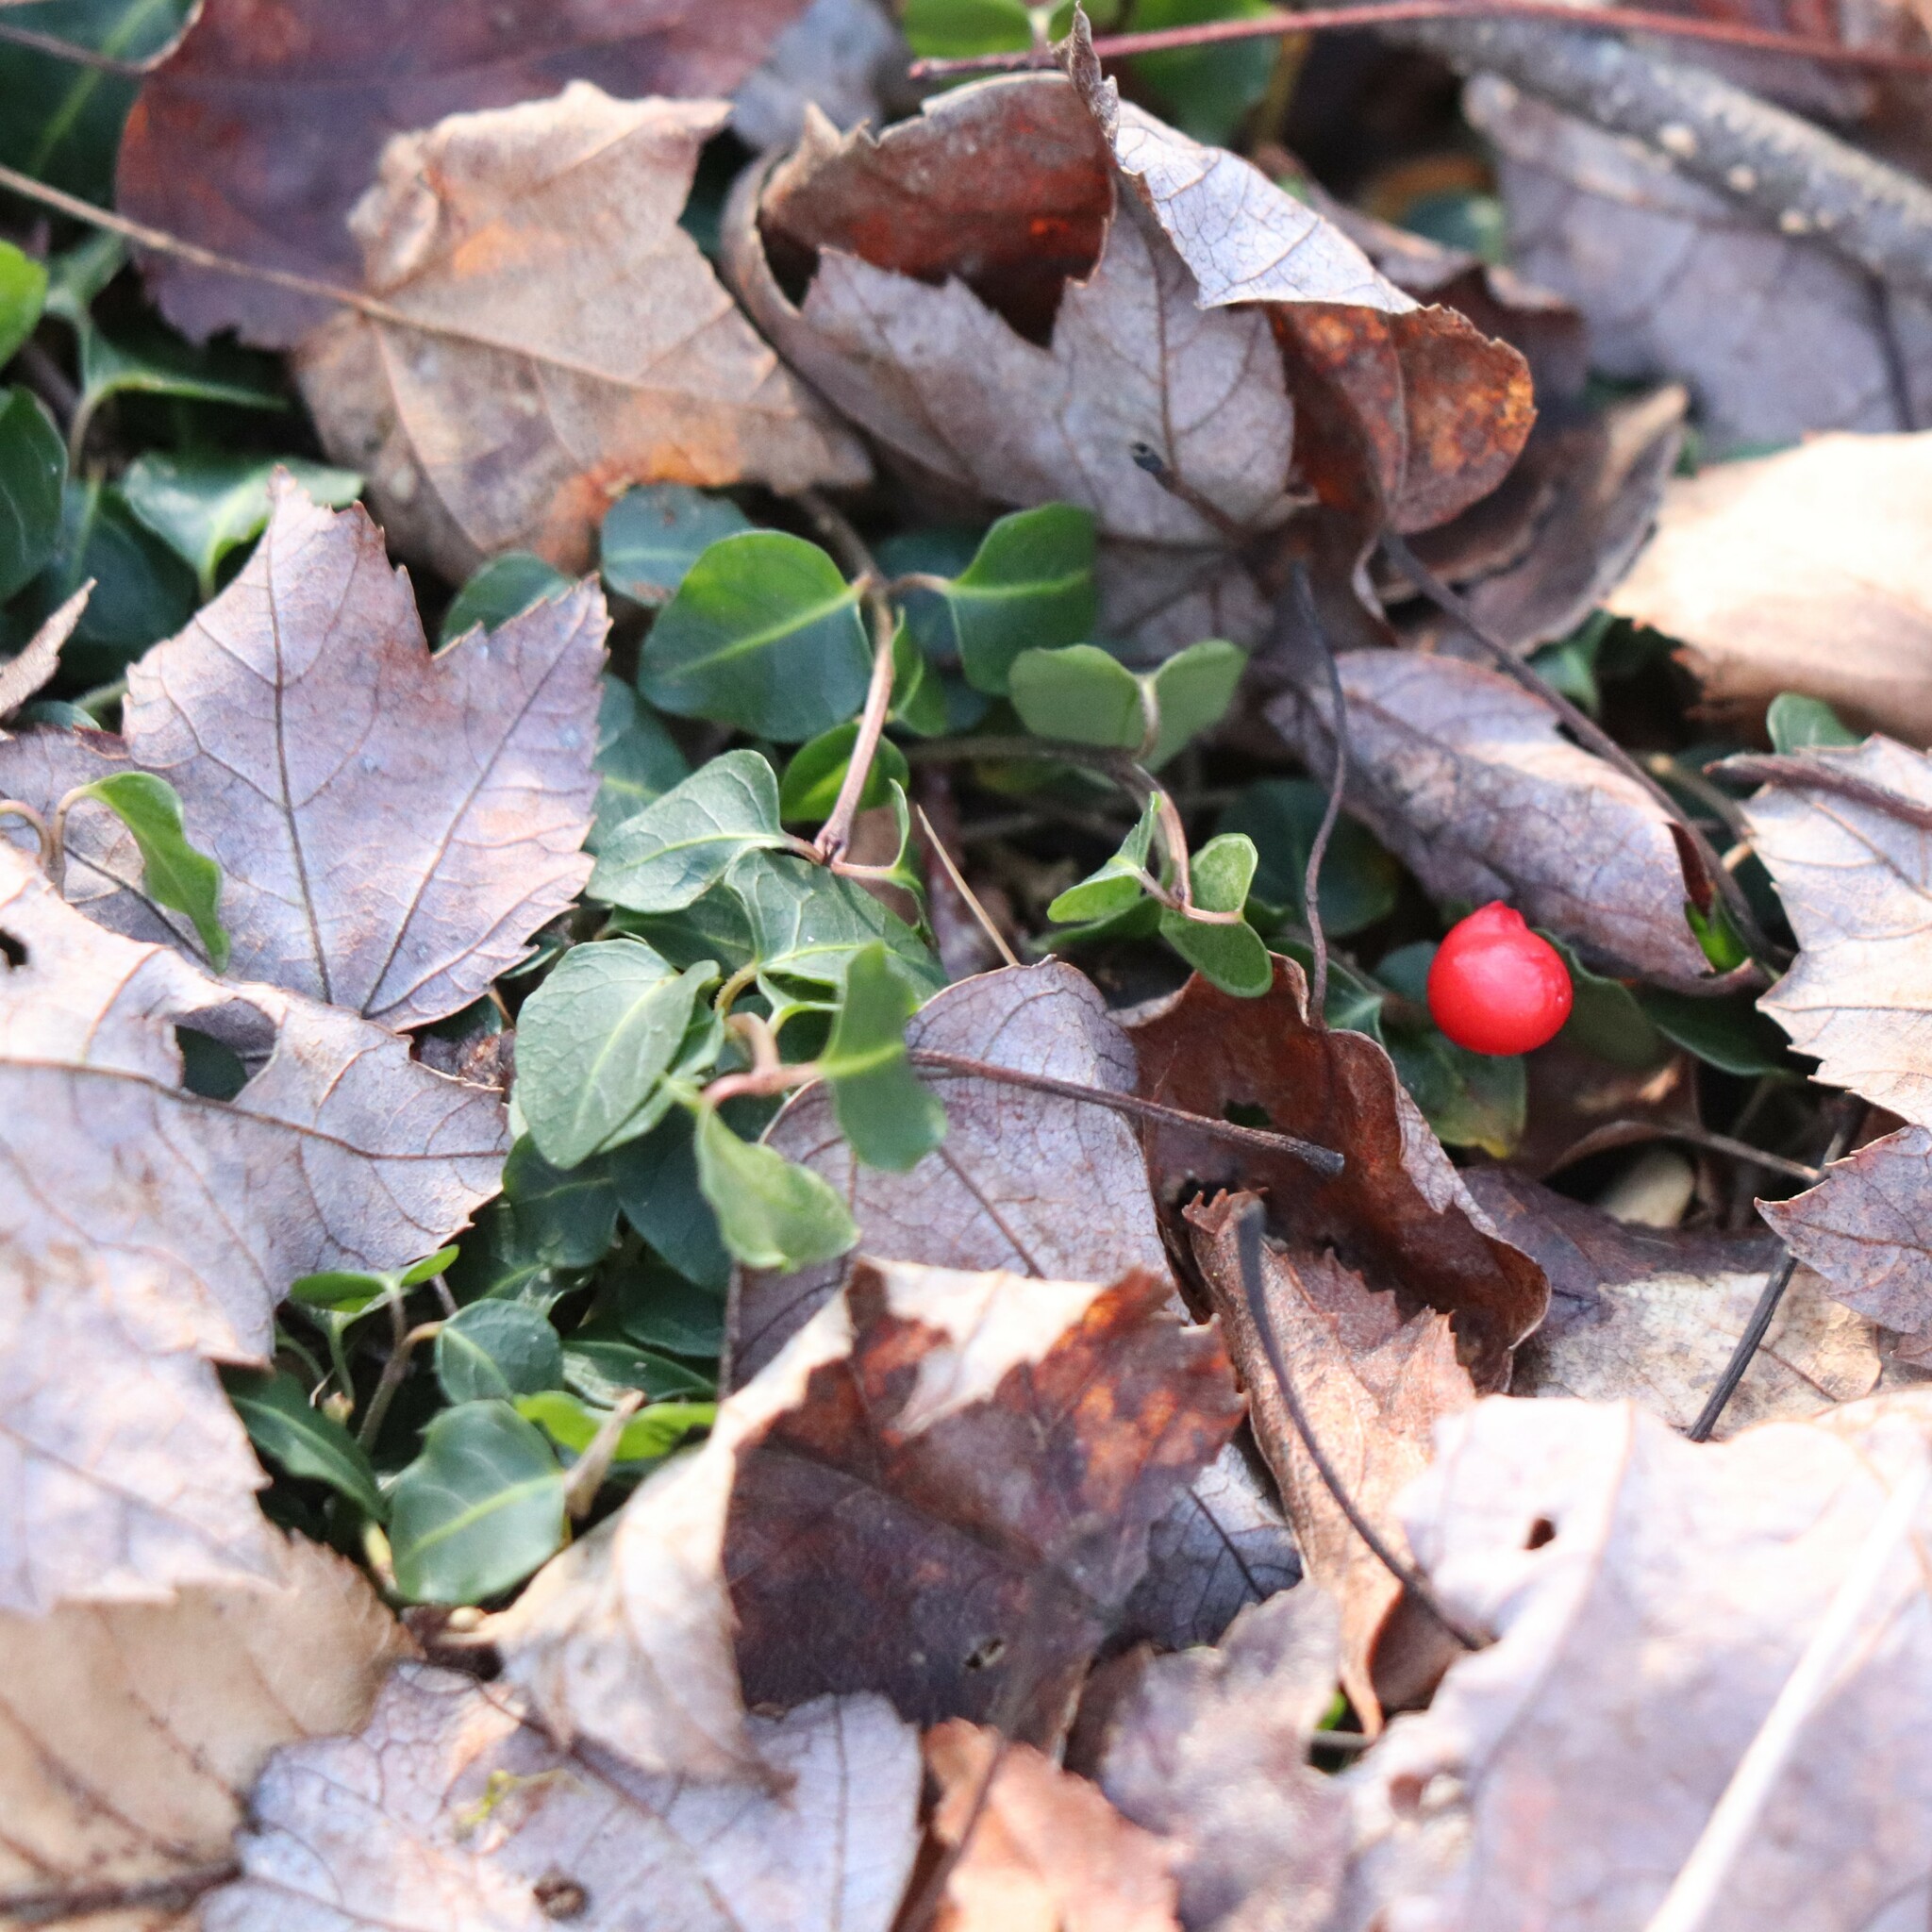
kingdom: Plantae
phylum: Tracheophyta
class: Magnoliopsida
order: Gentianales
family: Rubiaceae
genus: Mitchella
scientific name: Mitchella repens
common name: Partridge-berry
